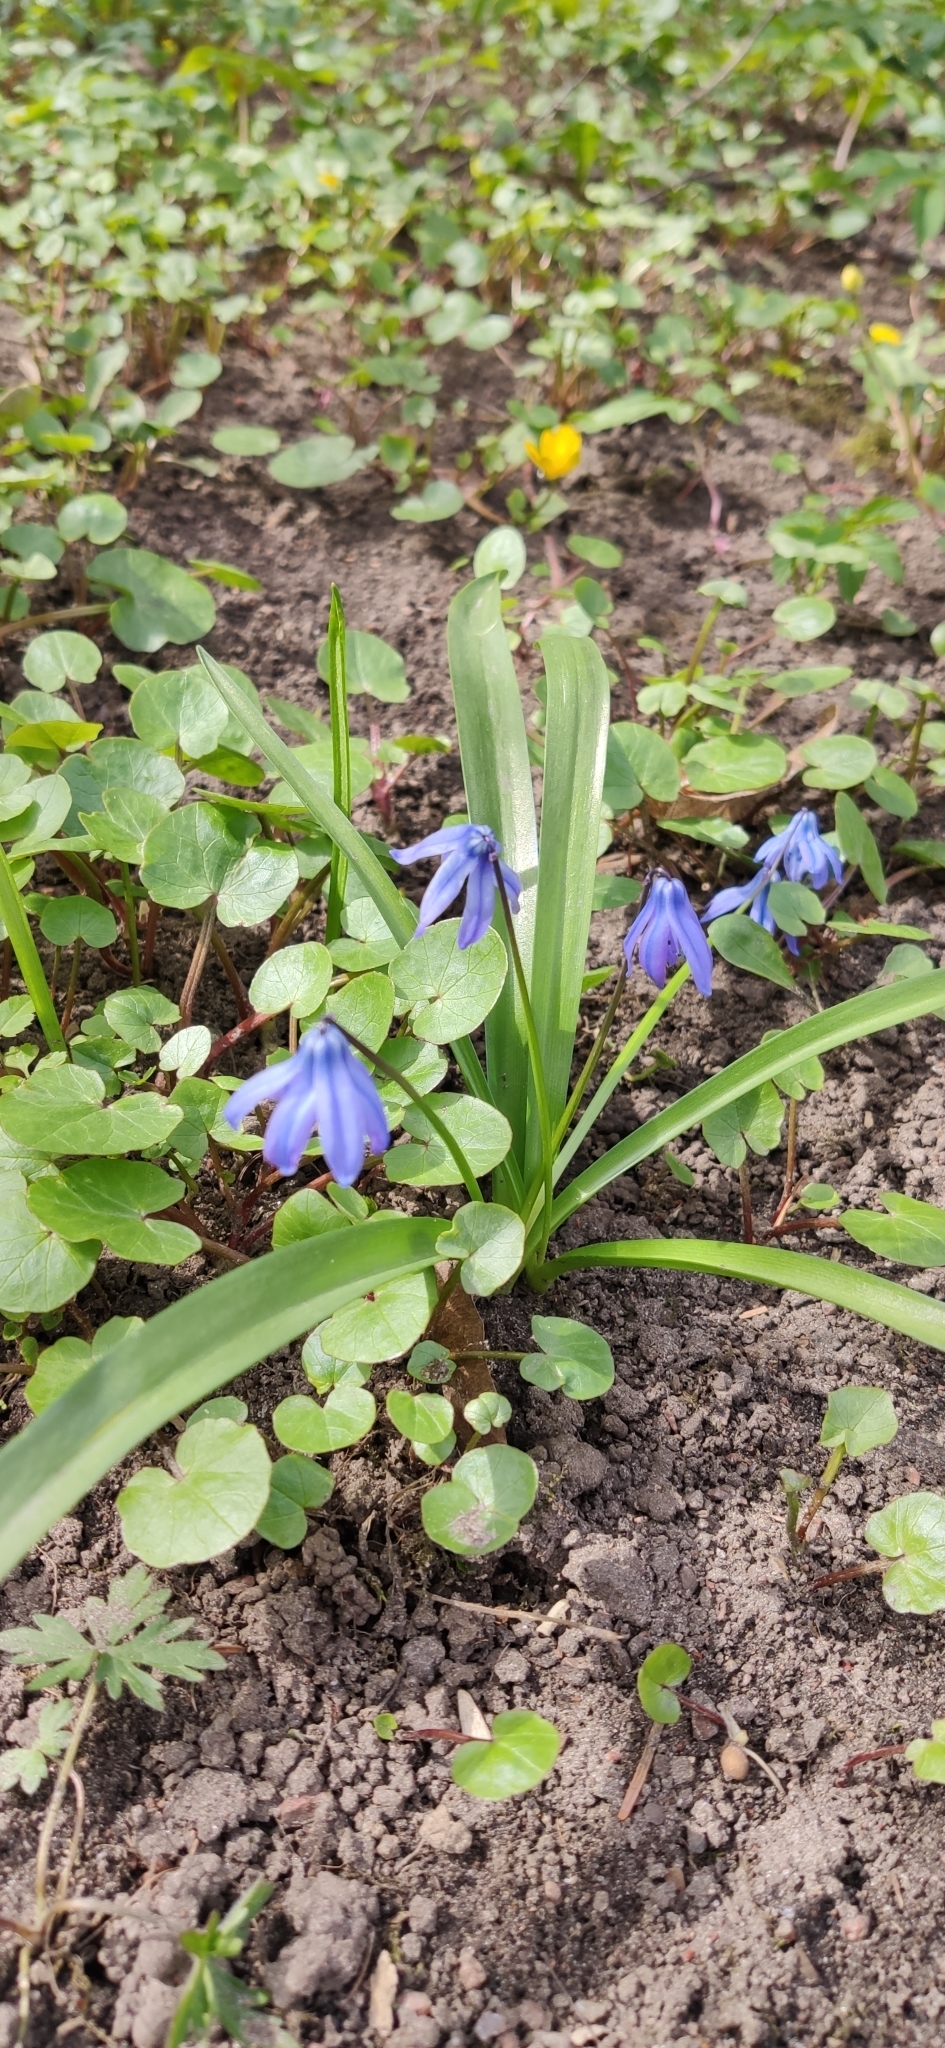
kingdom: Plantae
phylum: Tracheophyta
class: Liliopsida
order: Asparagales
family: Asparagaceae
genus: Scilla
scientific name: Scilla siberica
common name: Siberian squill
